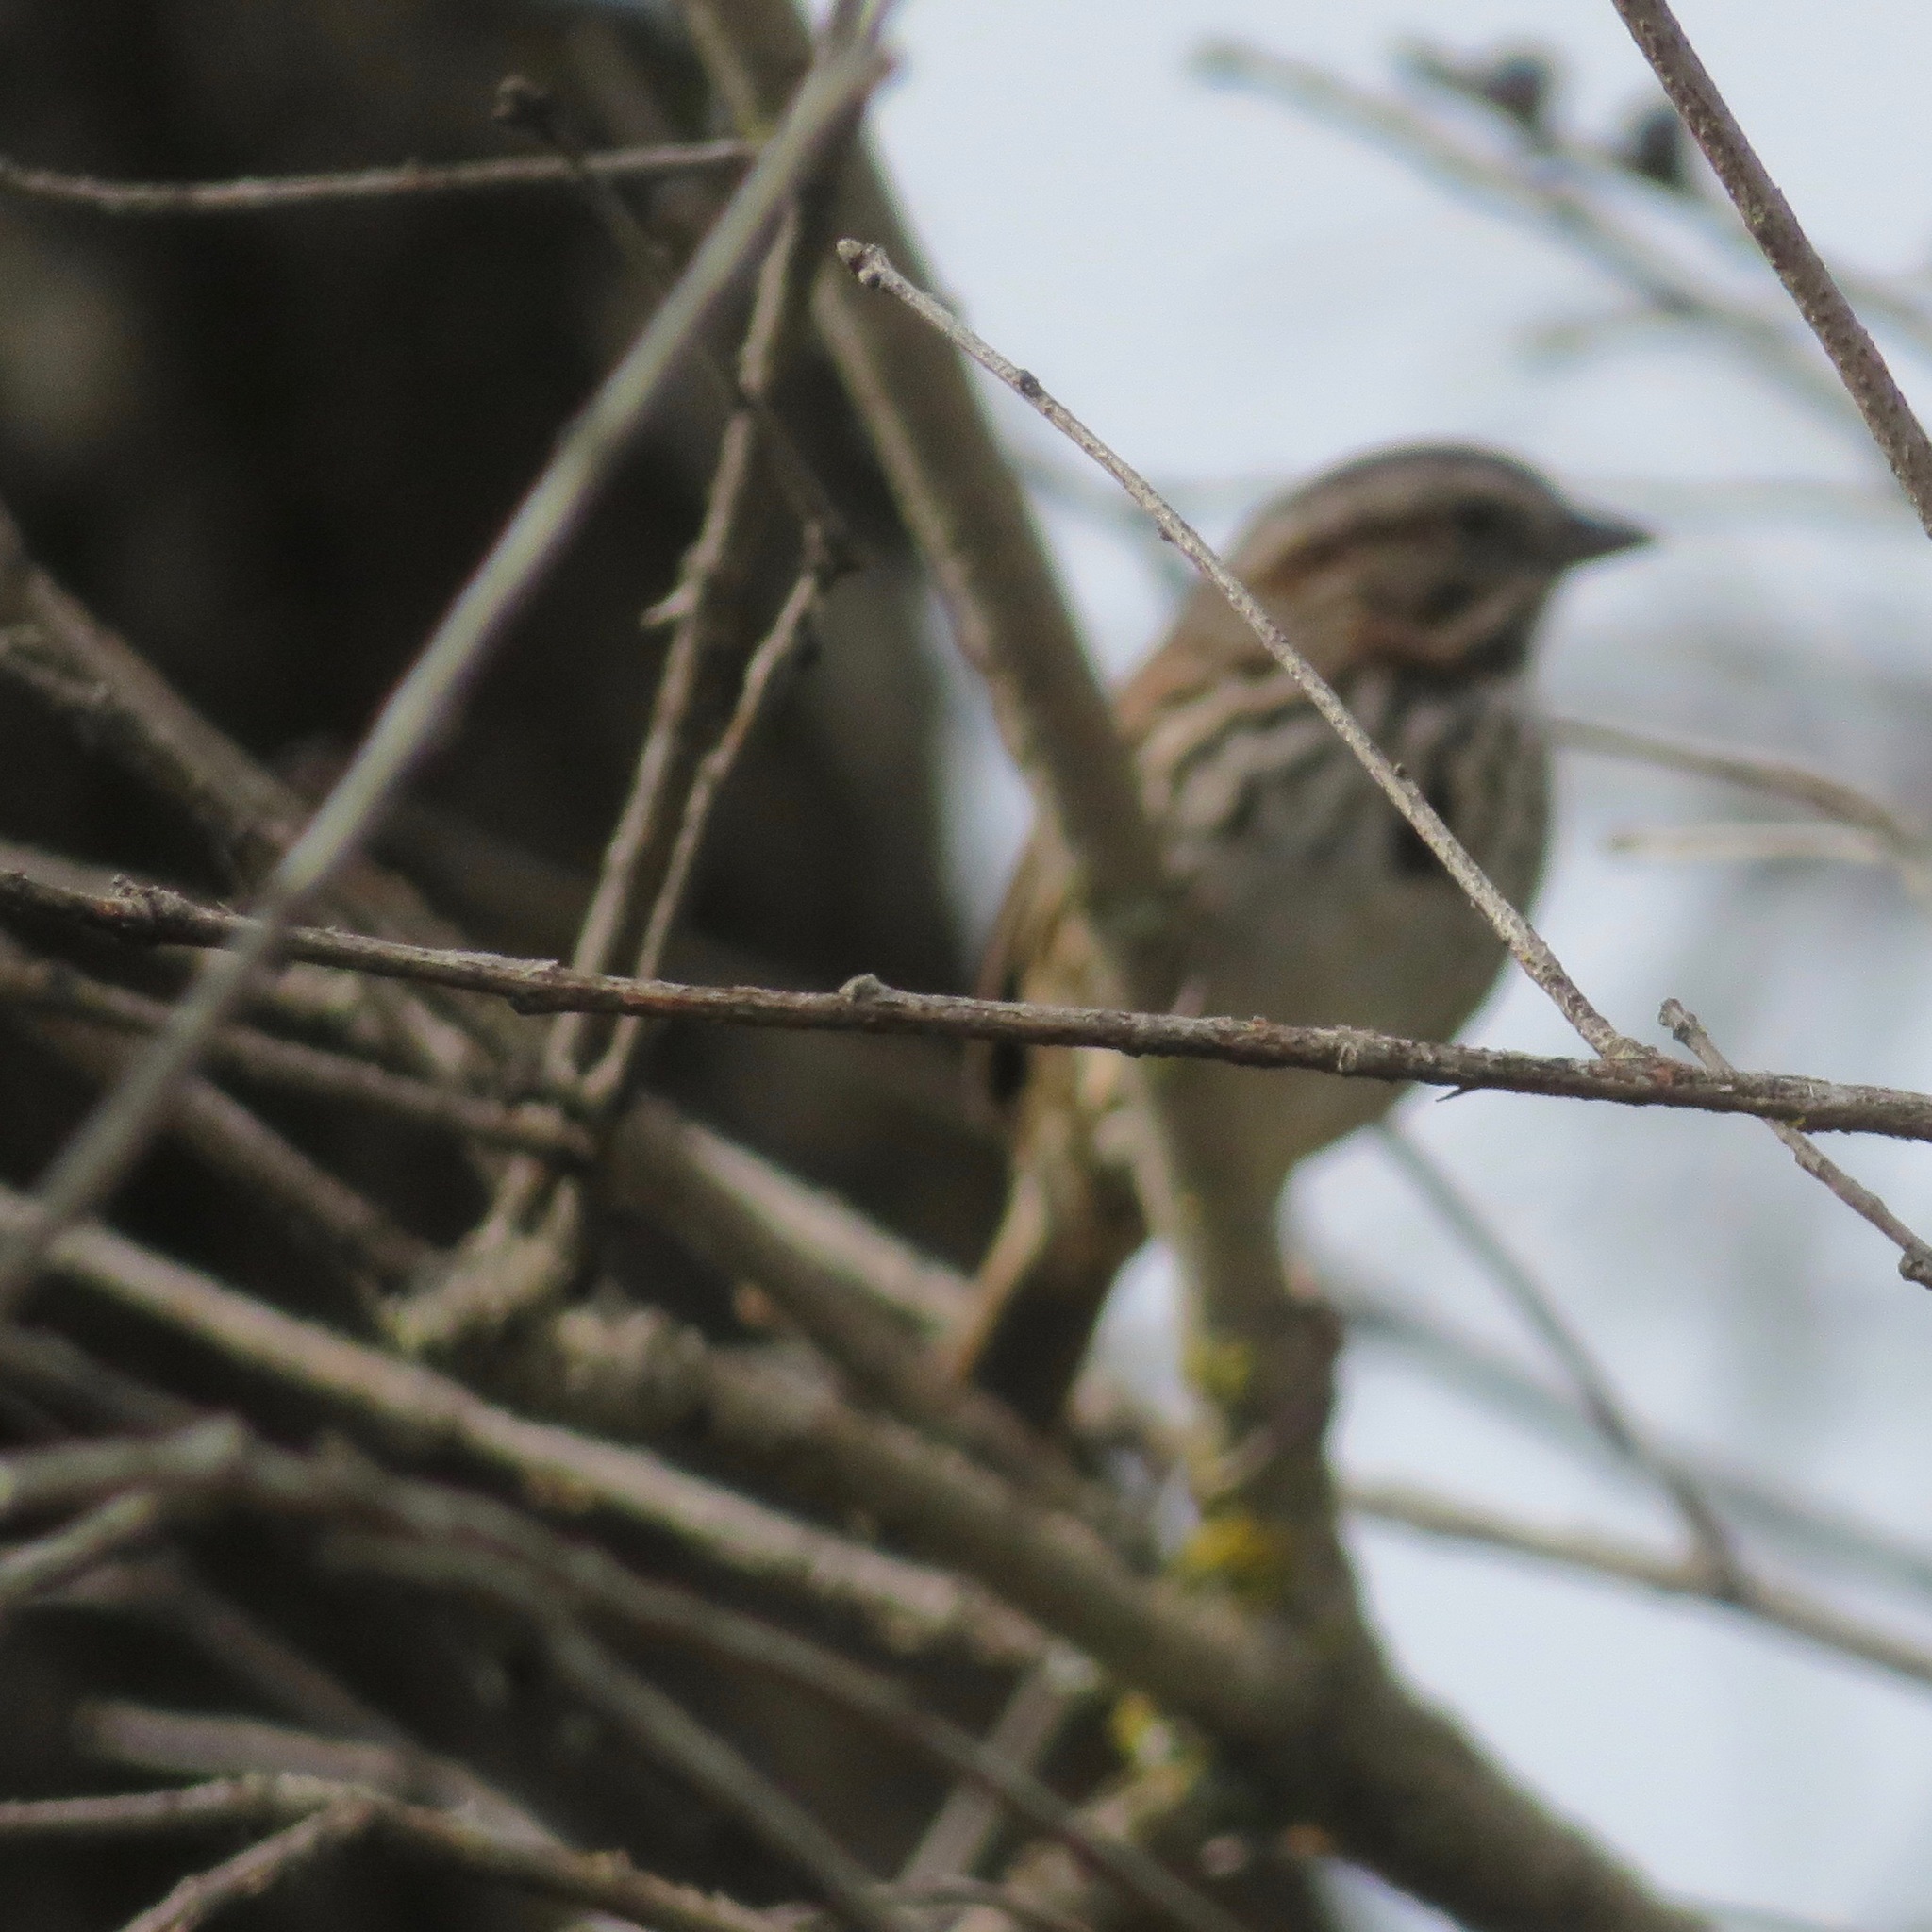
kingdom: Animalia
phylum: Chordata
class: Aves
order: Passeriformes
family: Passerellidae
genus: Melospiza
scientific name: Melospiza melodia
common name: Song sparrow
